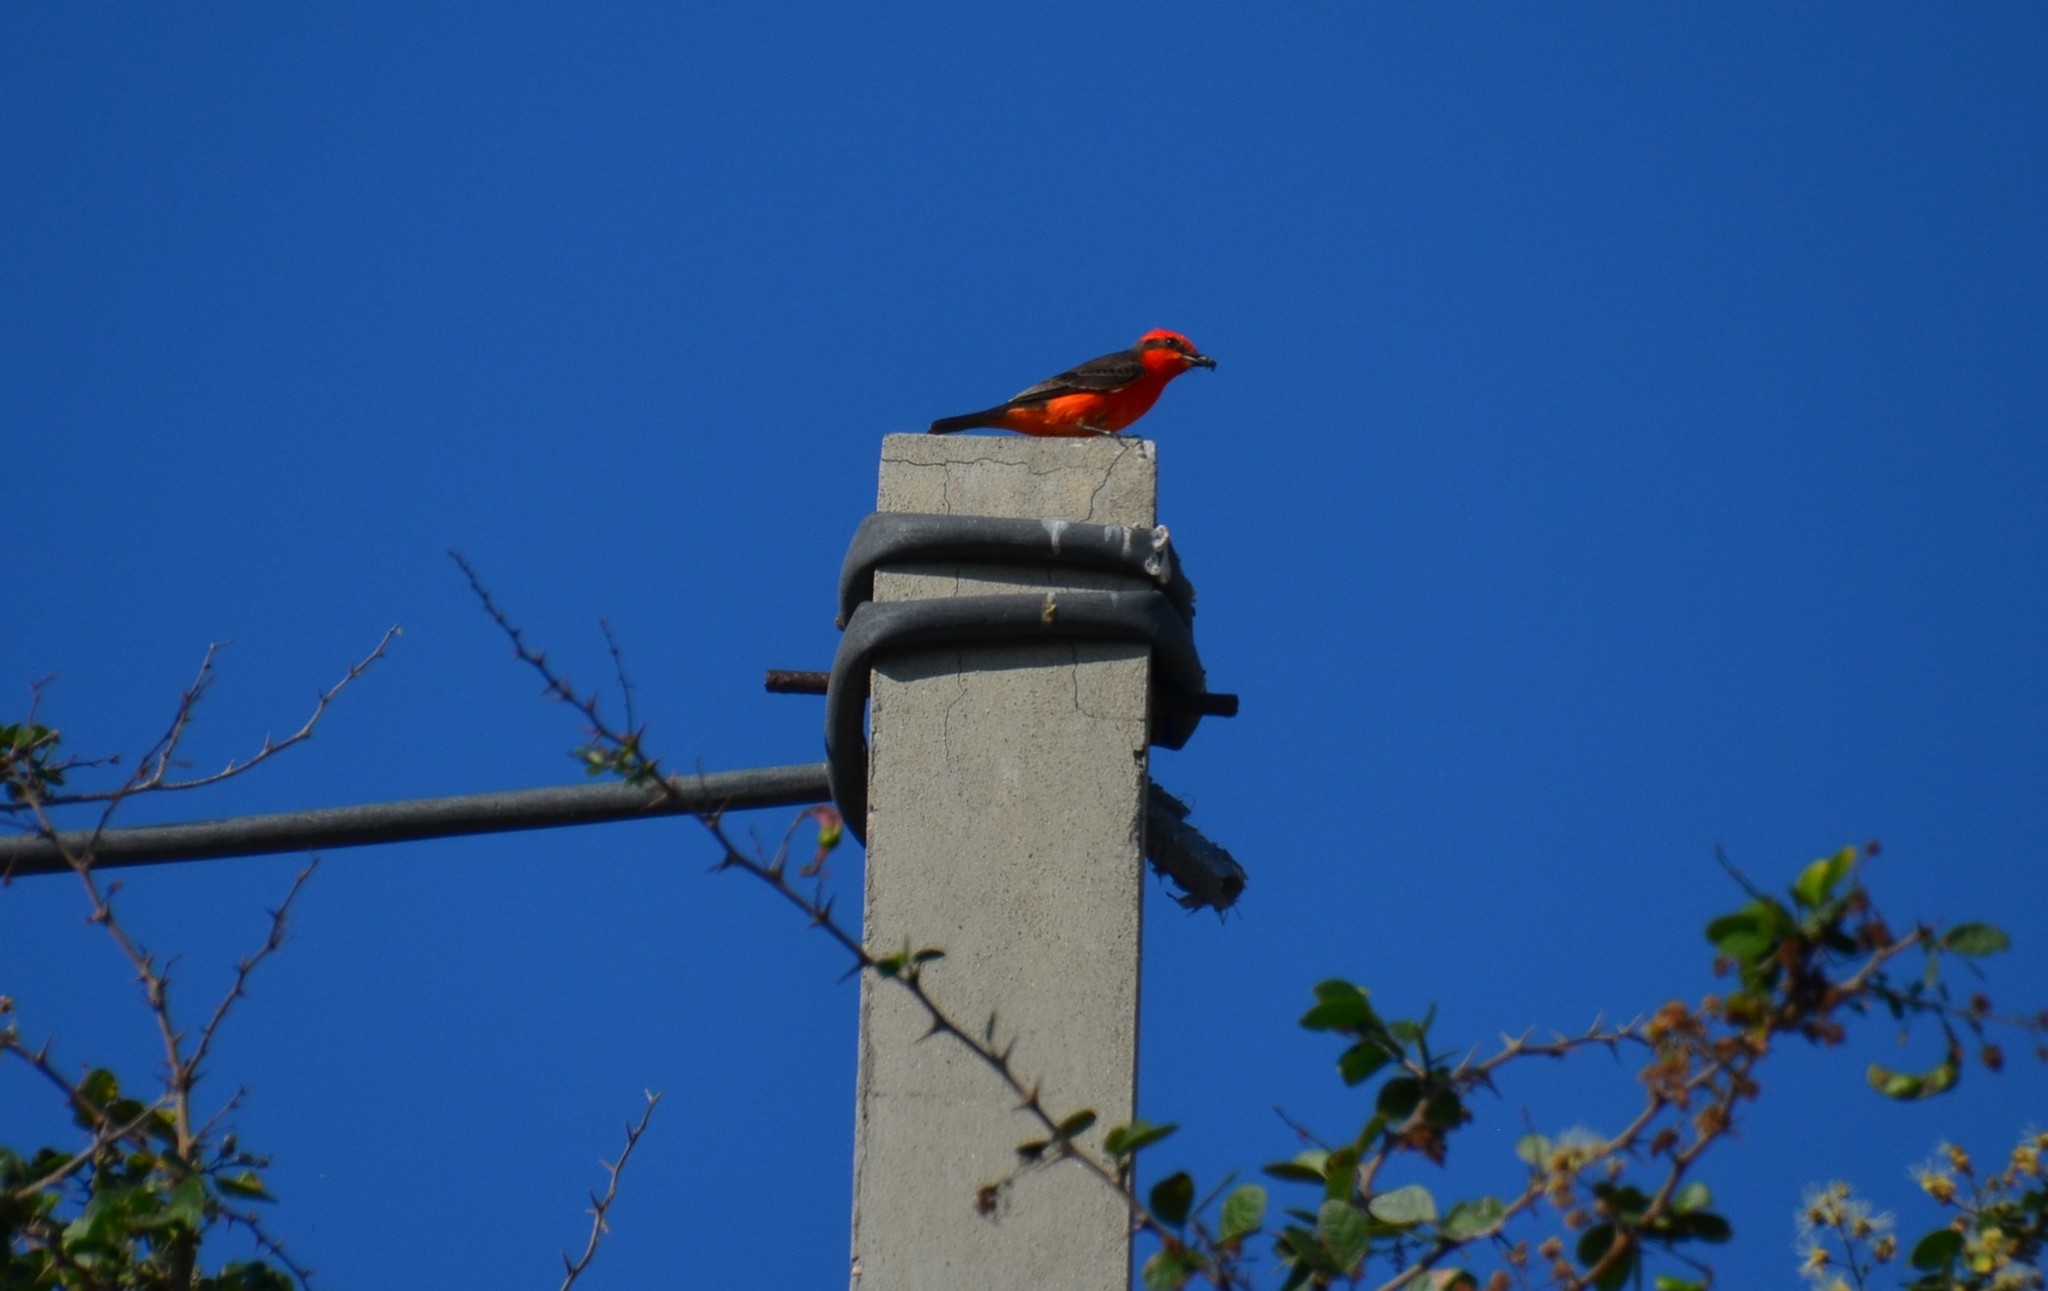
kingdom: Animalia
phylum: Chordata
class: Aves
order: Passeriformes
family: Tyrannidae
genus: Pyrocephalus
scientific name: Pyrocephalus rubinus
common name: Vermilion flycatcher
